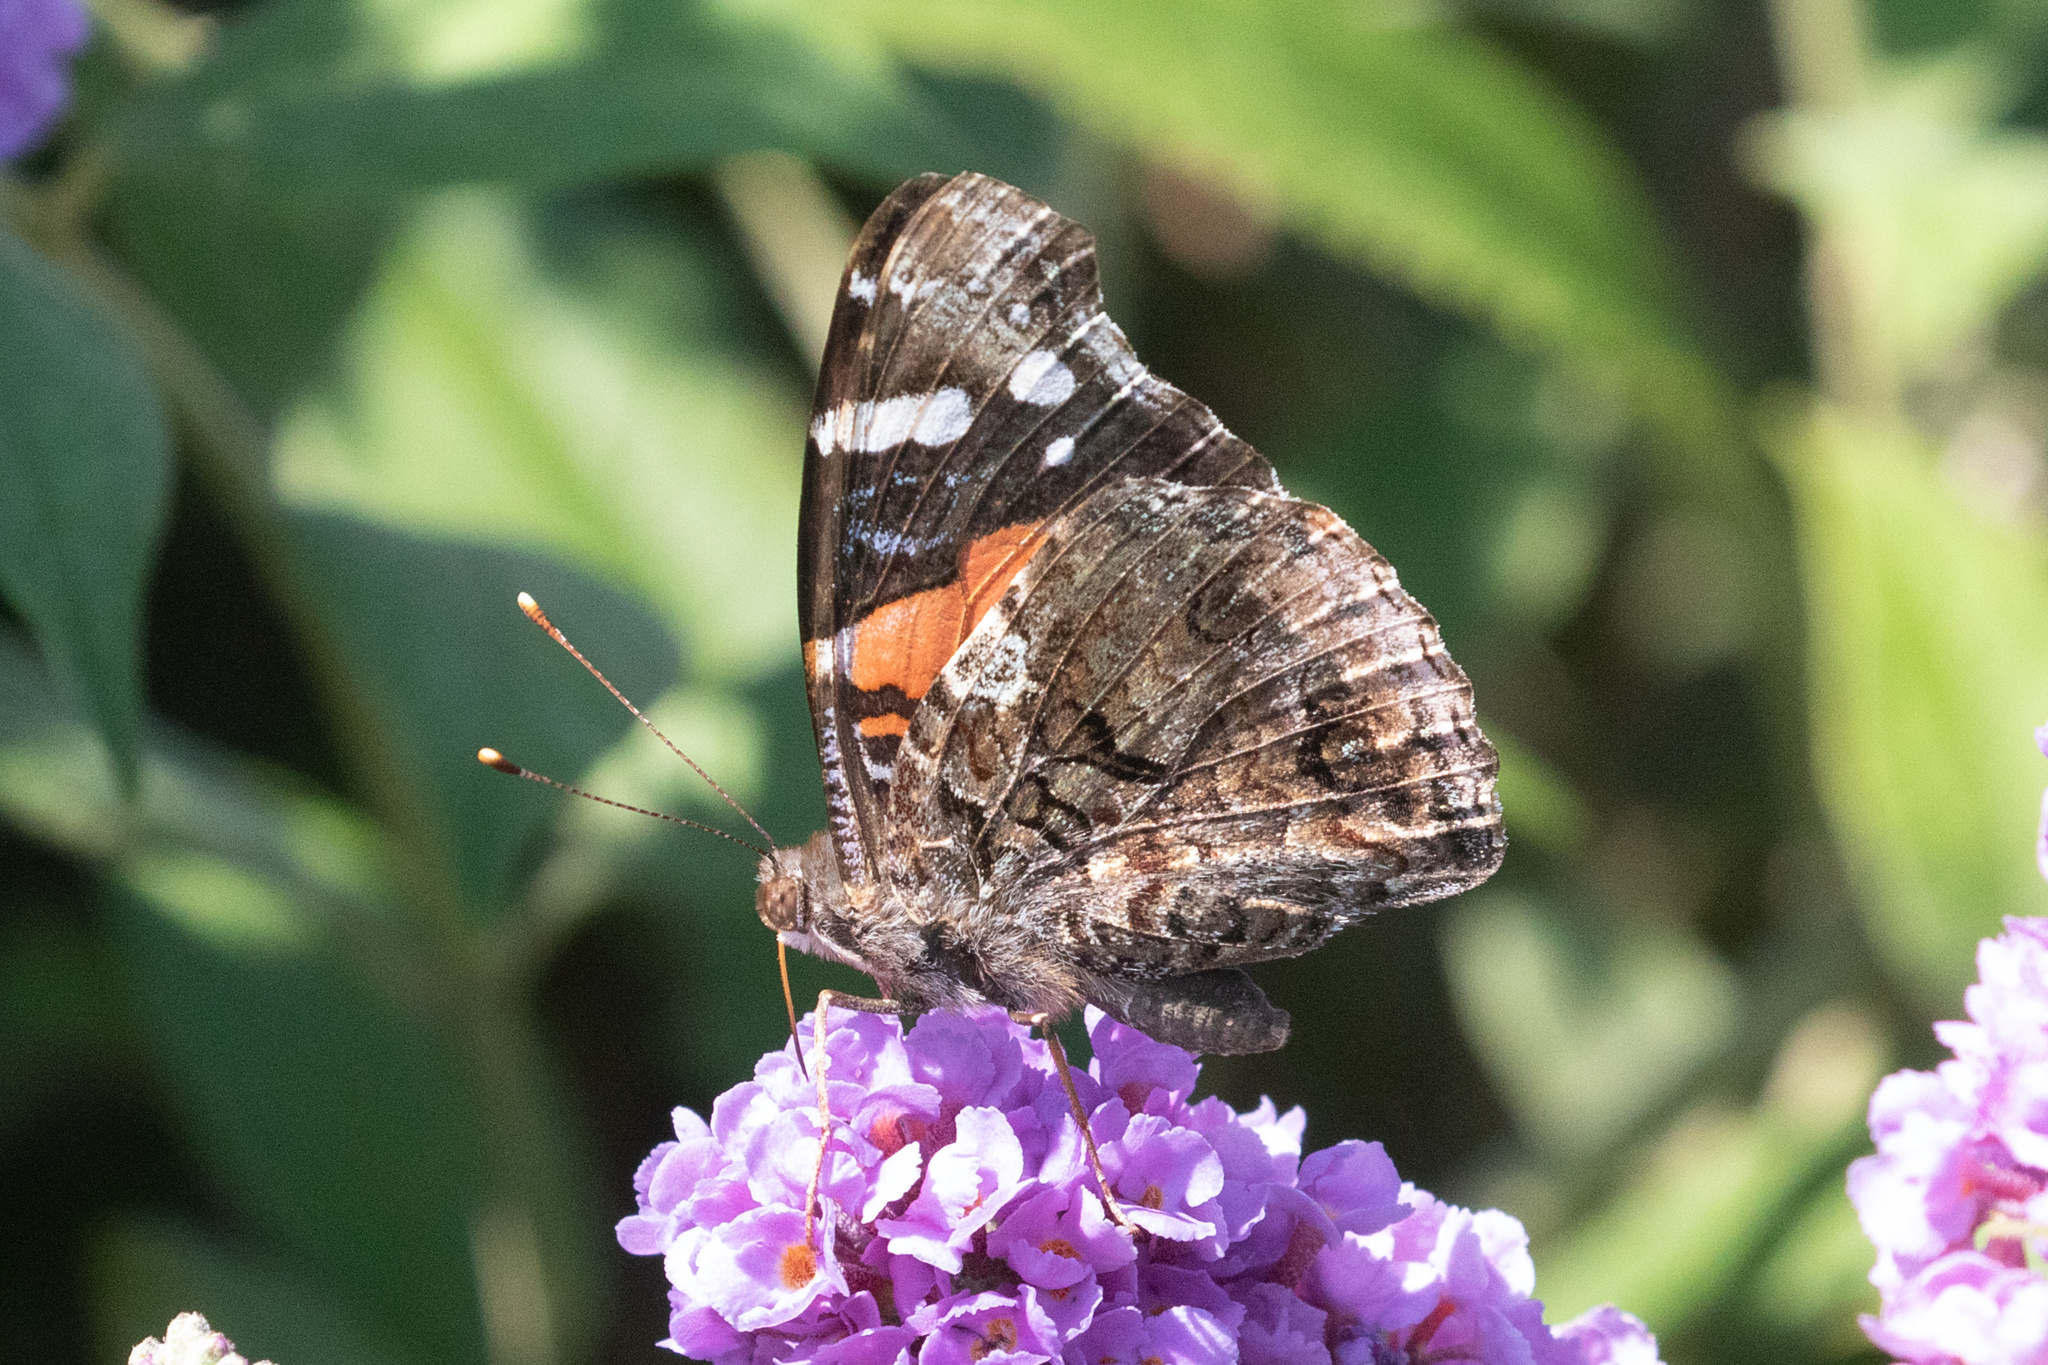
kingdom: Animalia
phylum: Arthropoda
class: Insecta
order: Lepidoptera
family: Nymphalidae
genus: Vanessa
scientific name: Vanessa atalanta
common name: Red admiral
